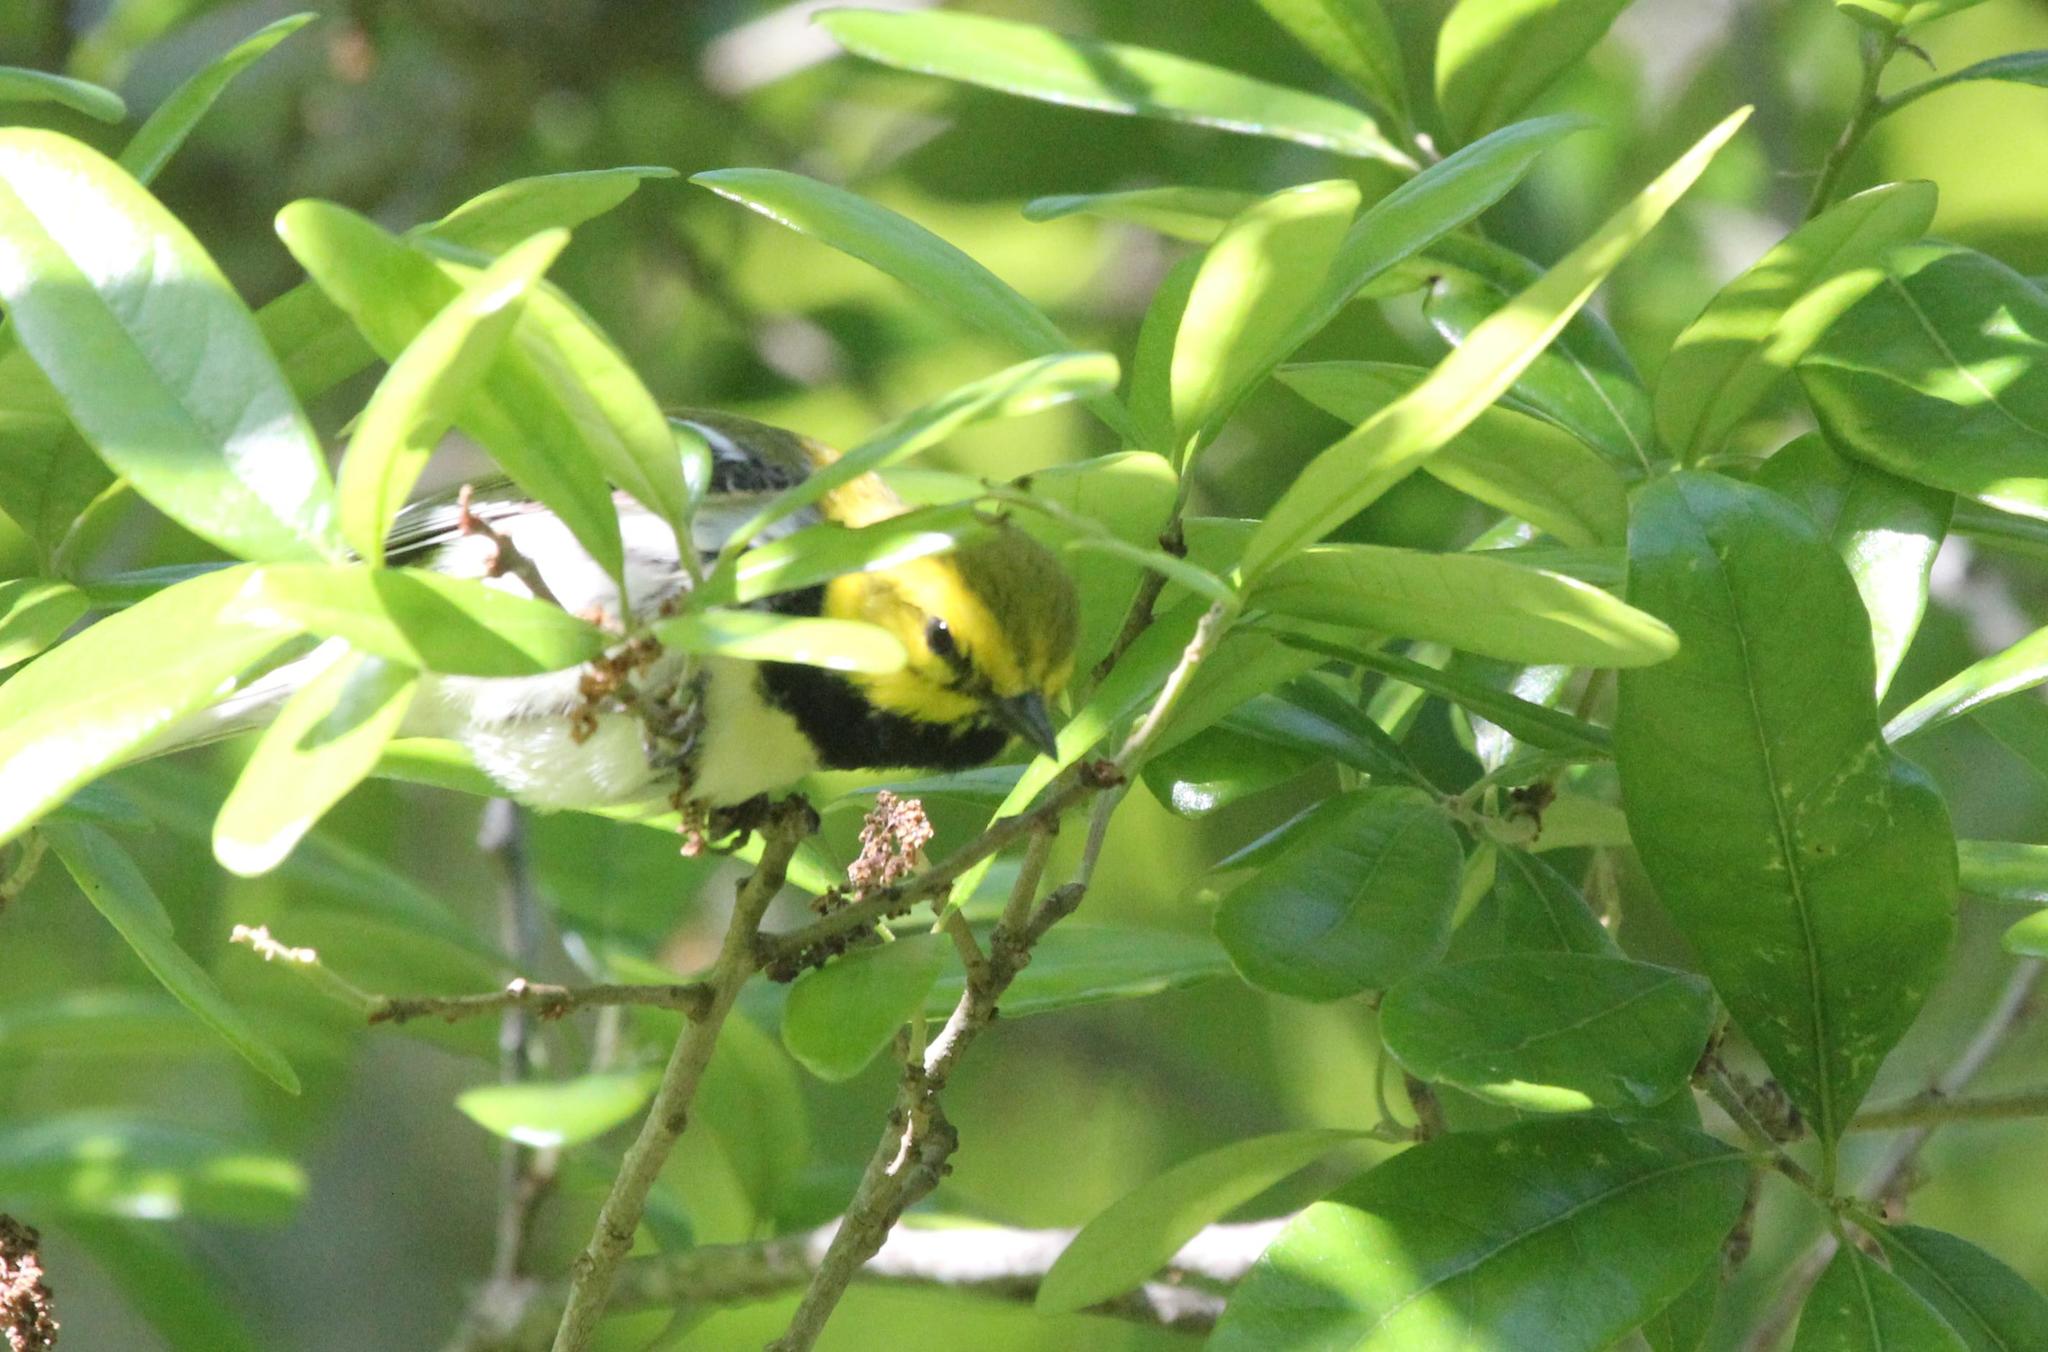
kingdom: Animalia
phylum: Chordata
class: Aves
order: Passeriformes
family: Parulidae
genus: Setophaga
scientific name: Setophaga virens
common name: Black-throated green warbler
